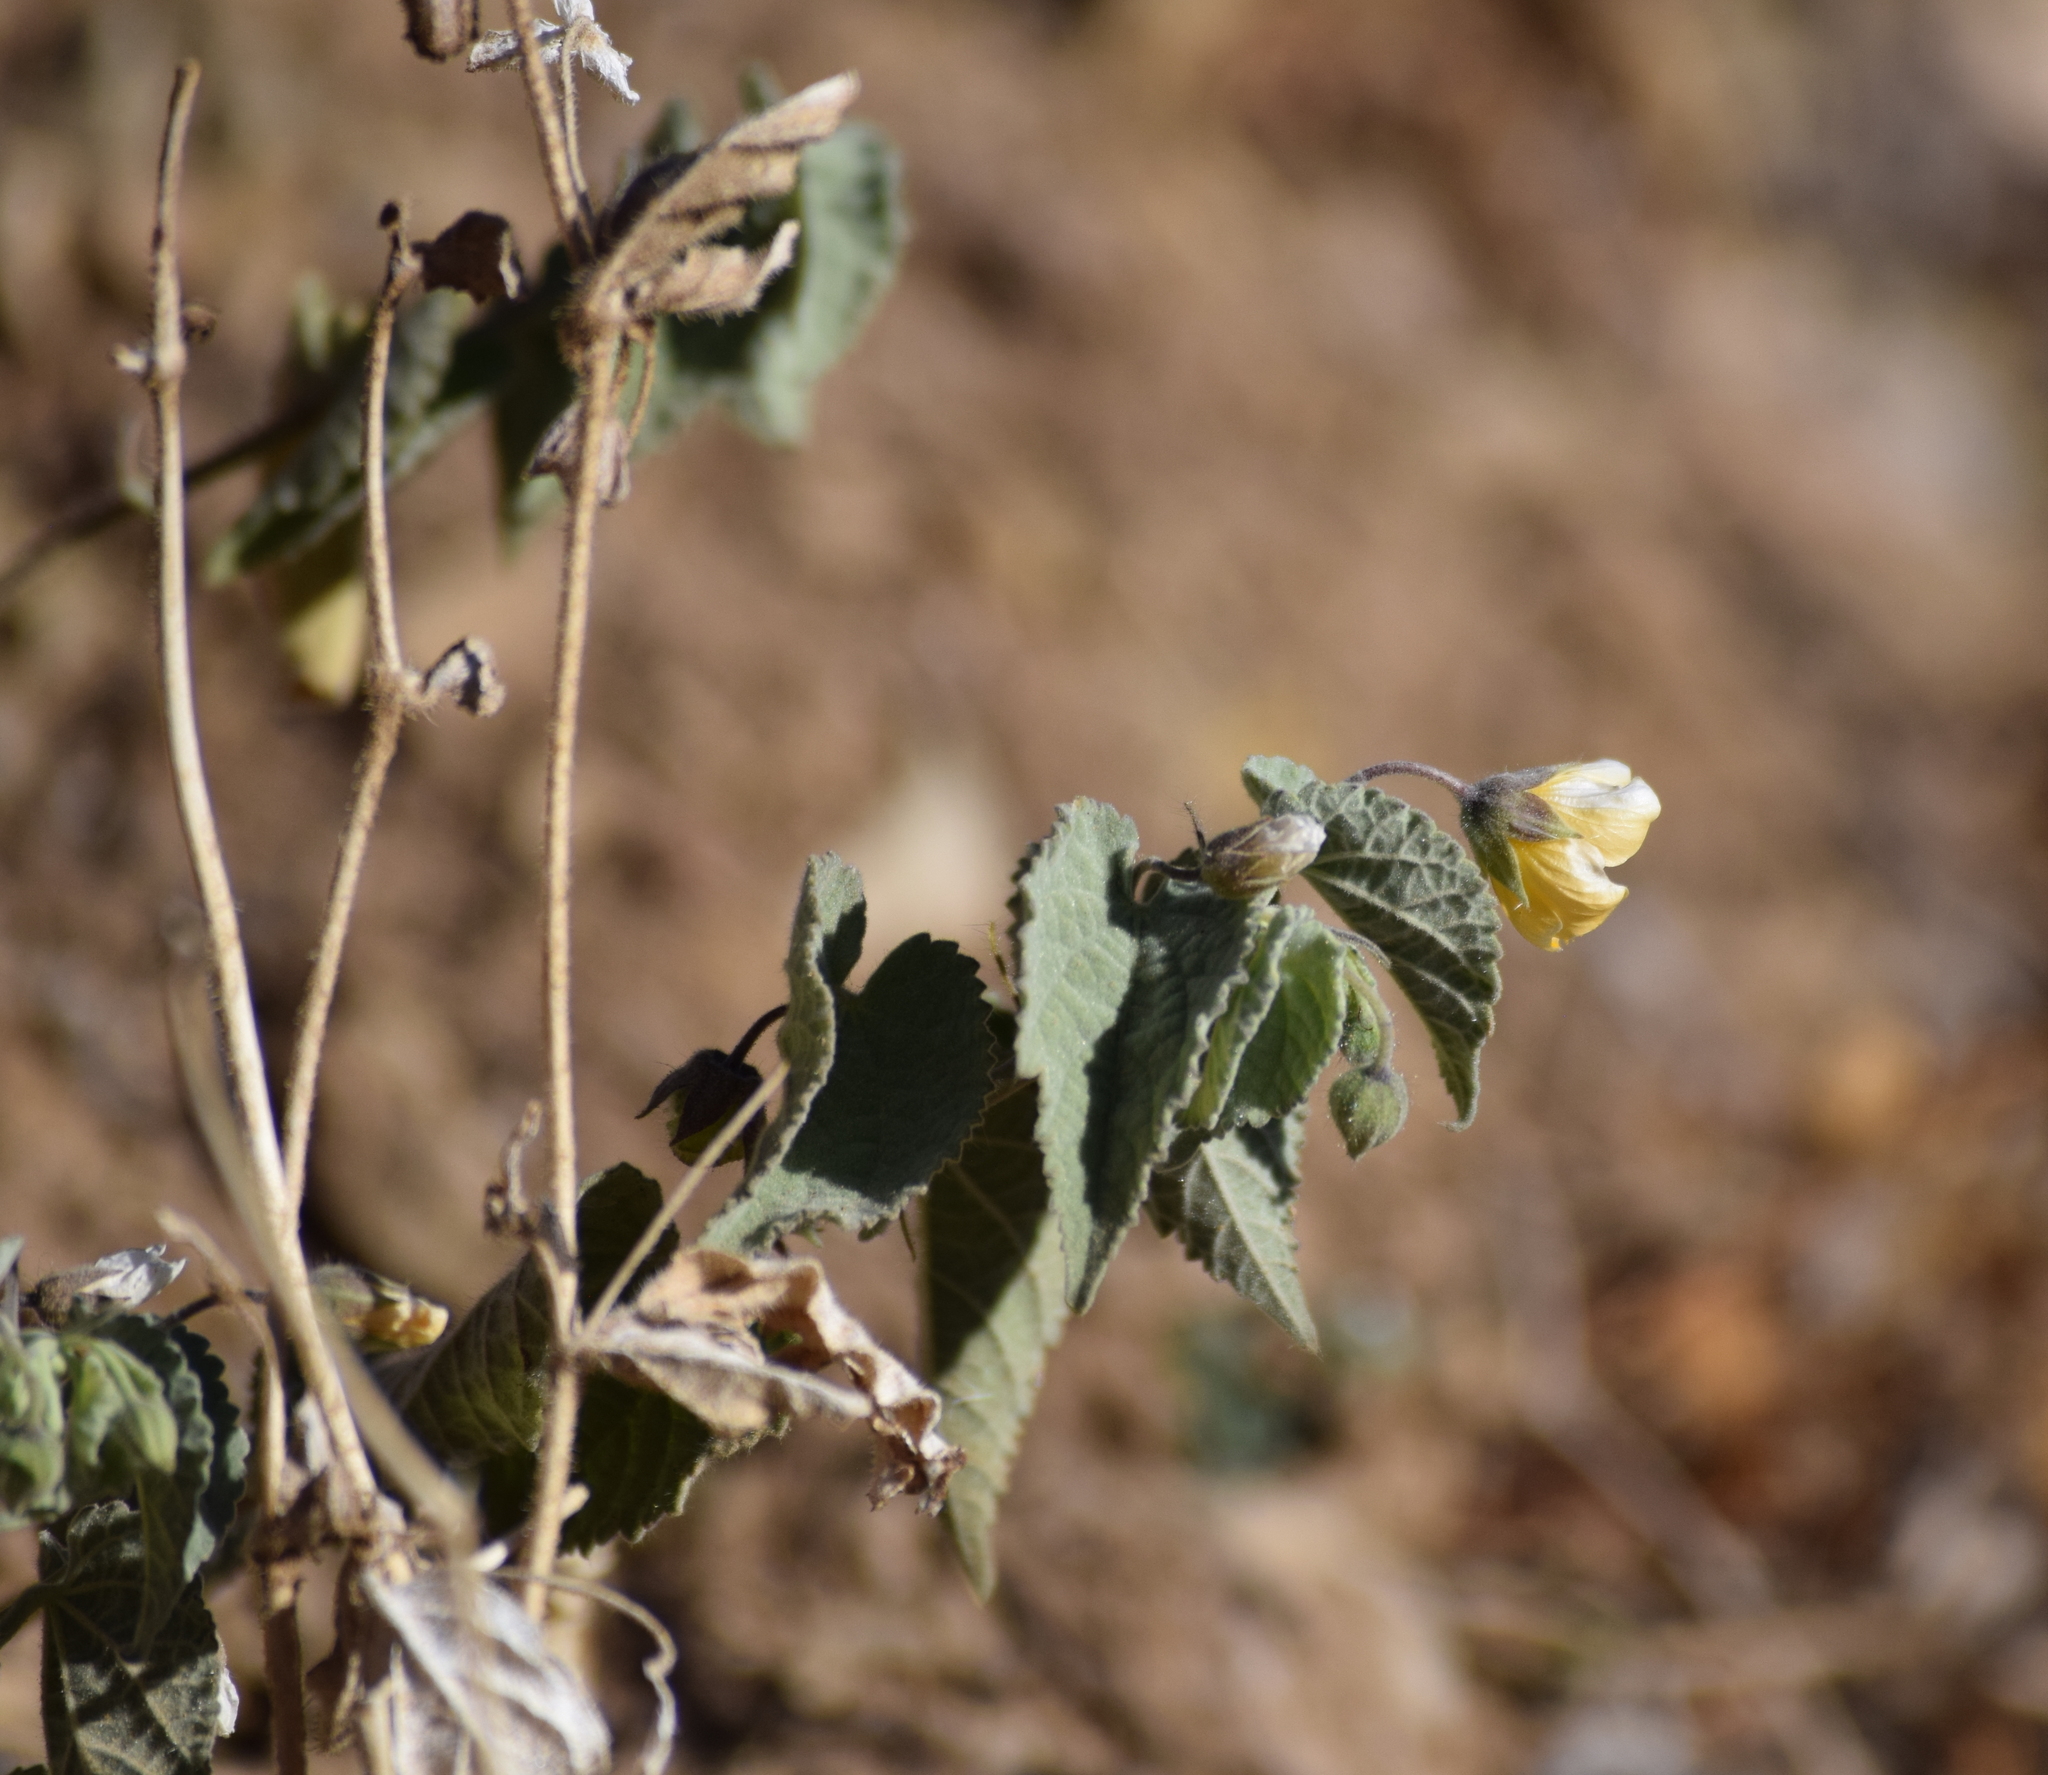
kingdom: Plantae
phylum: Tracheophyta
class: Magnoliopsida
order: Malvales
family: Malvaceae
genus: Herissantia
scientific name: Herissantia crispa
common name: Bladdermallow
